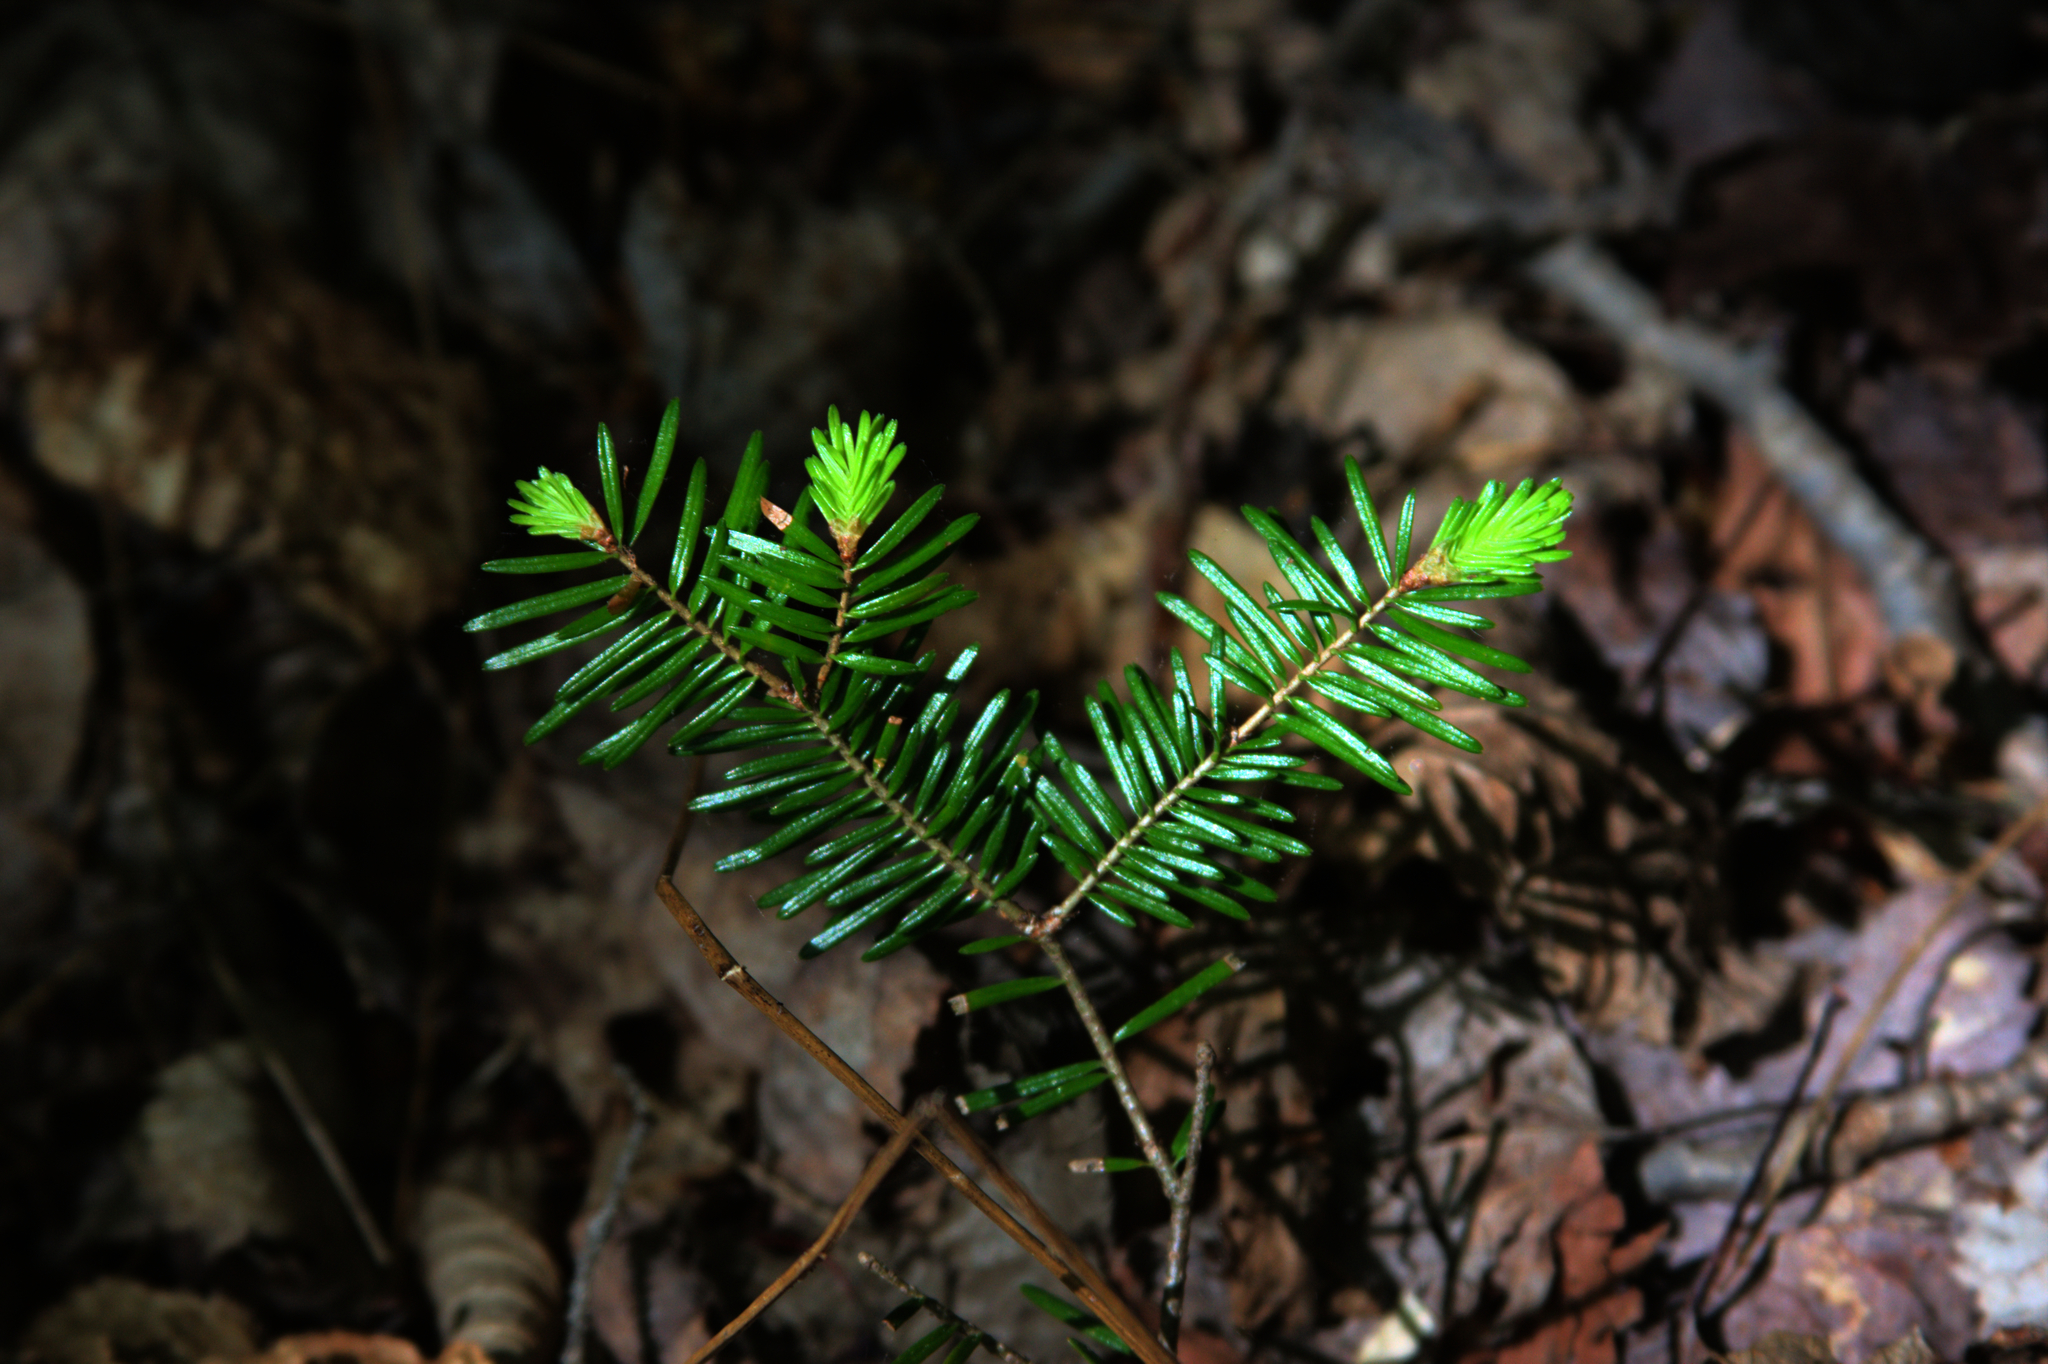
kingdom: Plantae
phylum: Tracheophyta
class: Pinopsida
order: Pinales
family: Pinaceae
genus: Abies
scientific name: Abies balsamea
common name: Balsam fir
